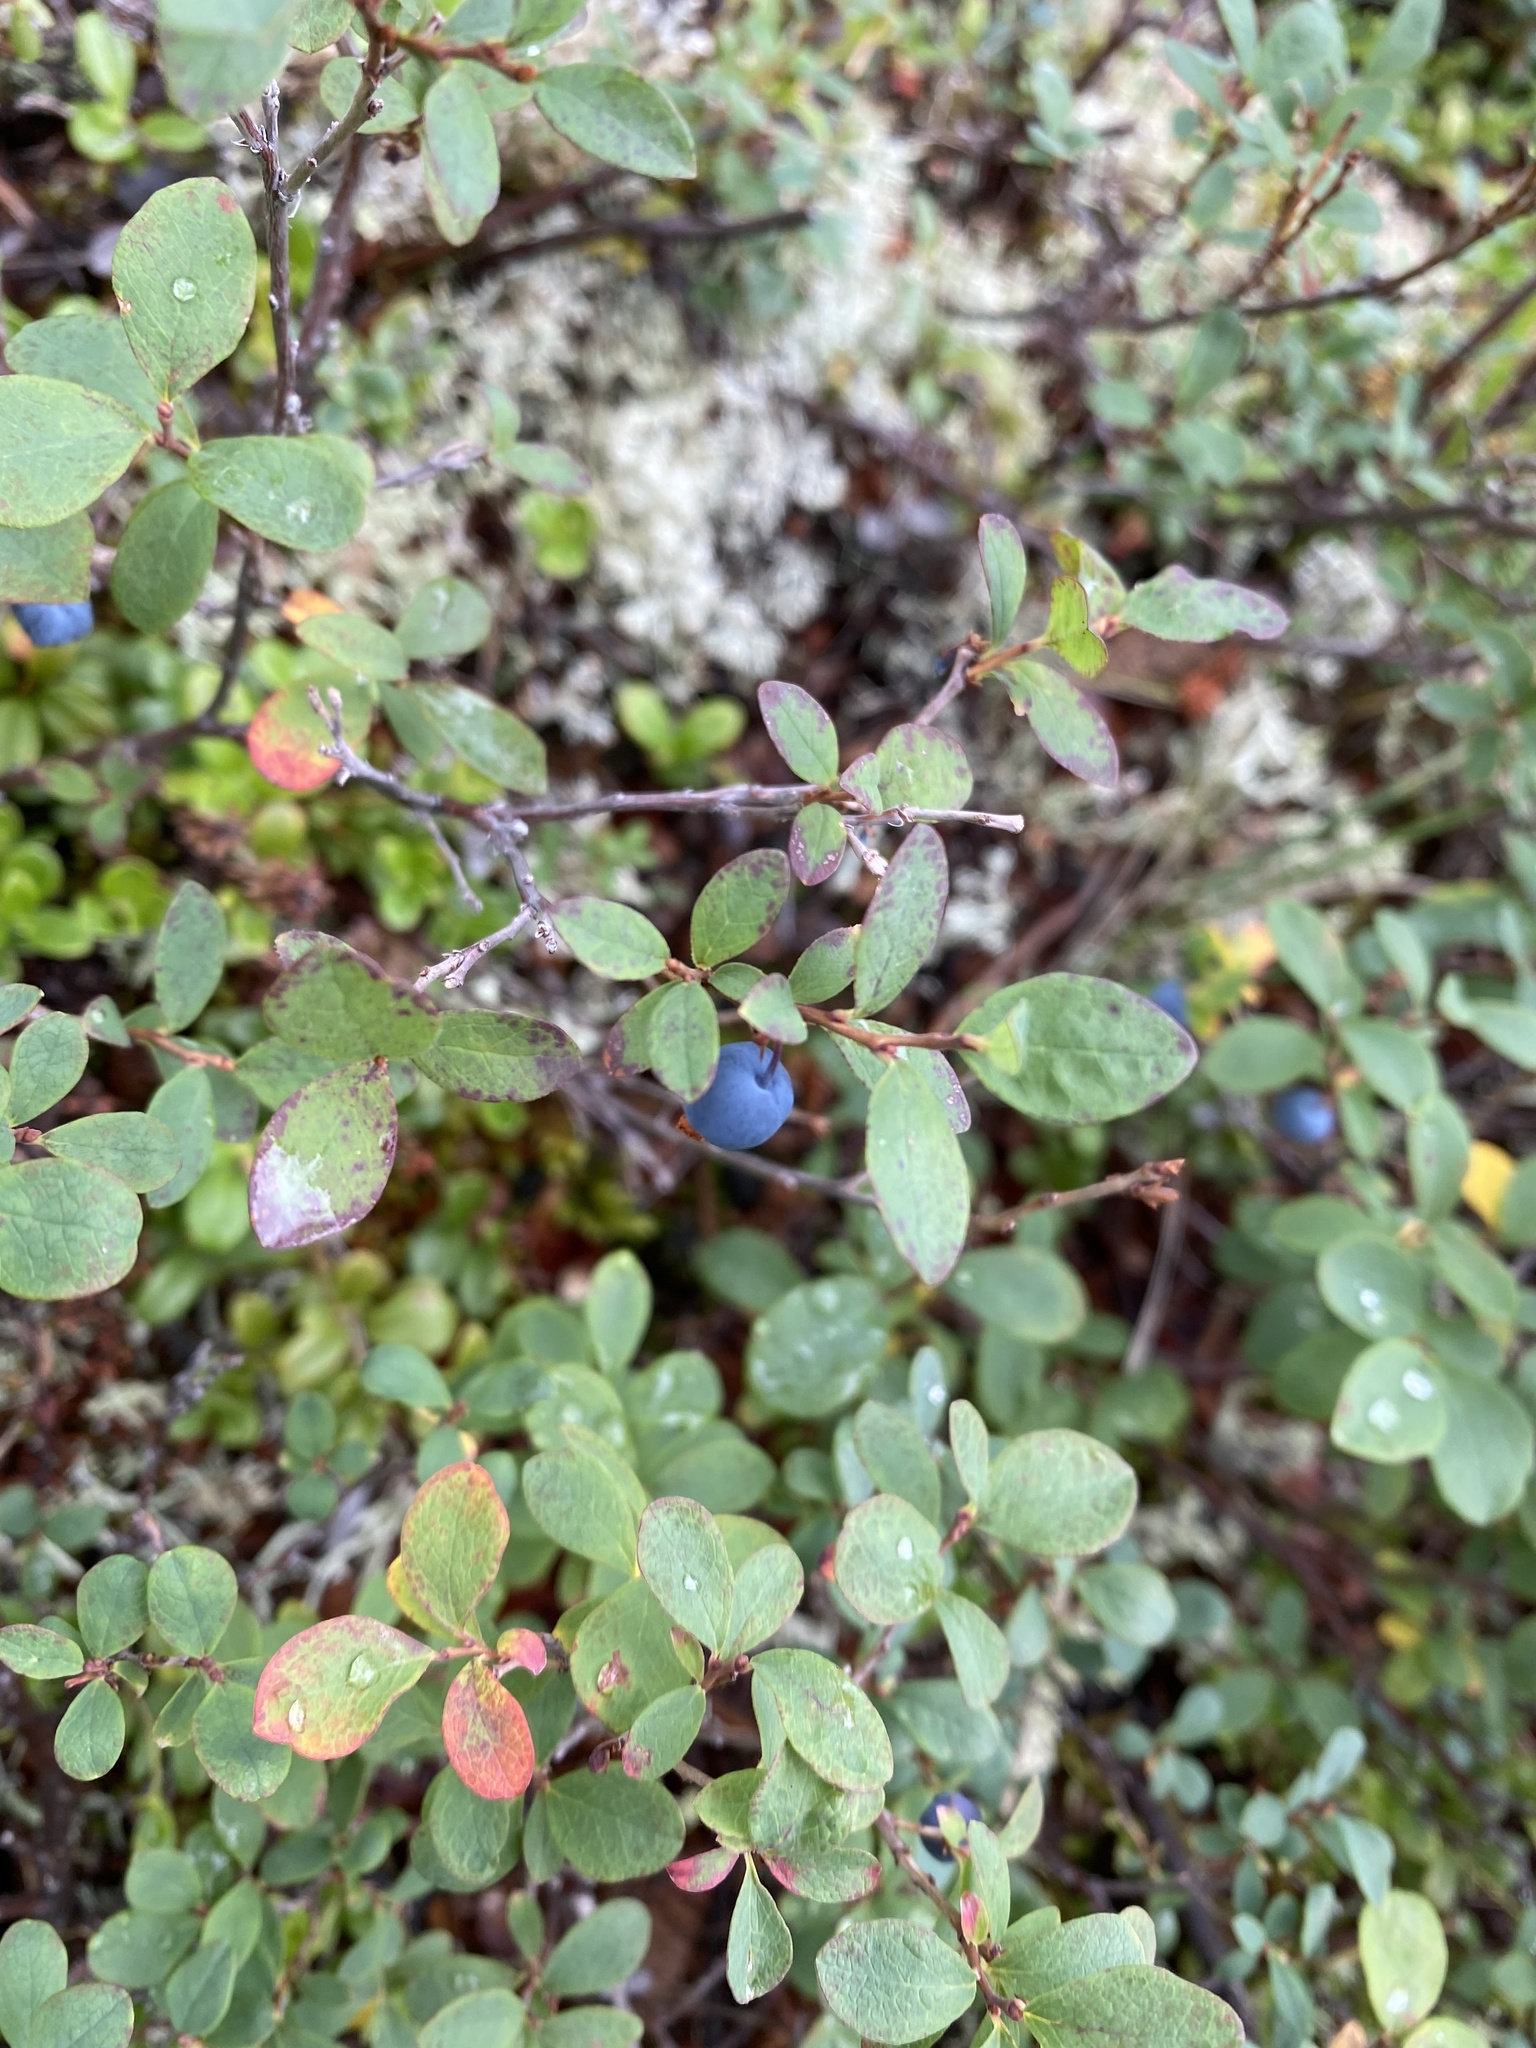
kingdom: Plantae
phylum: Tracheophyta
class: Magnoliopsida
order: Ericales
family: Ericaceae
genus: Vaccinium
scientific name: Vaccinium uliginosum
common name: Bog bilberry
